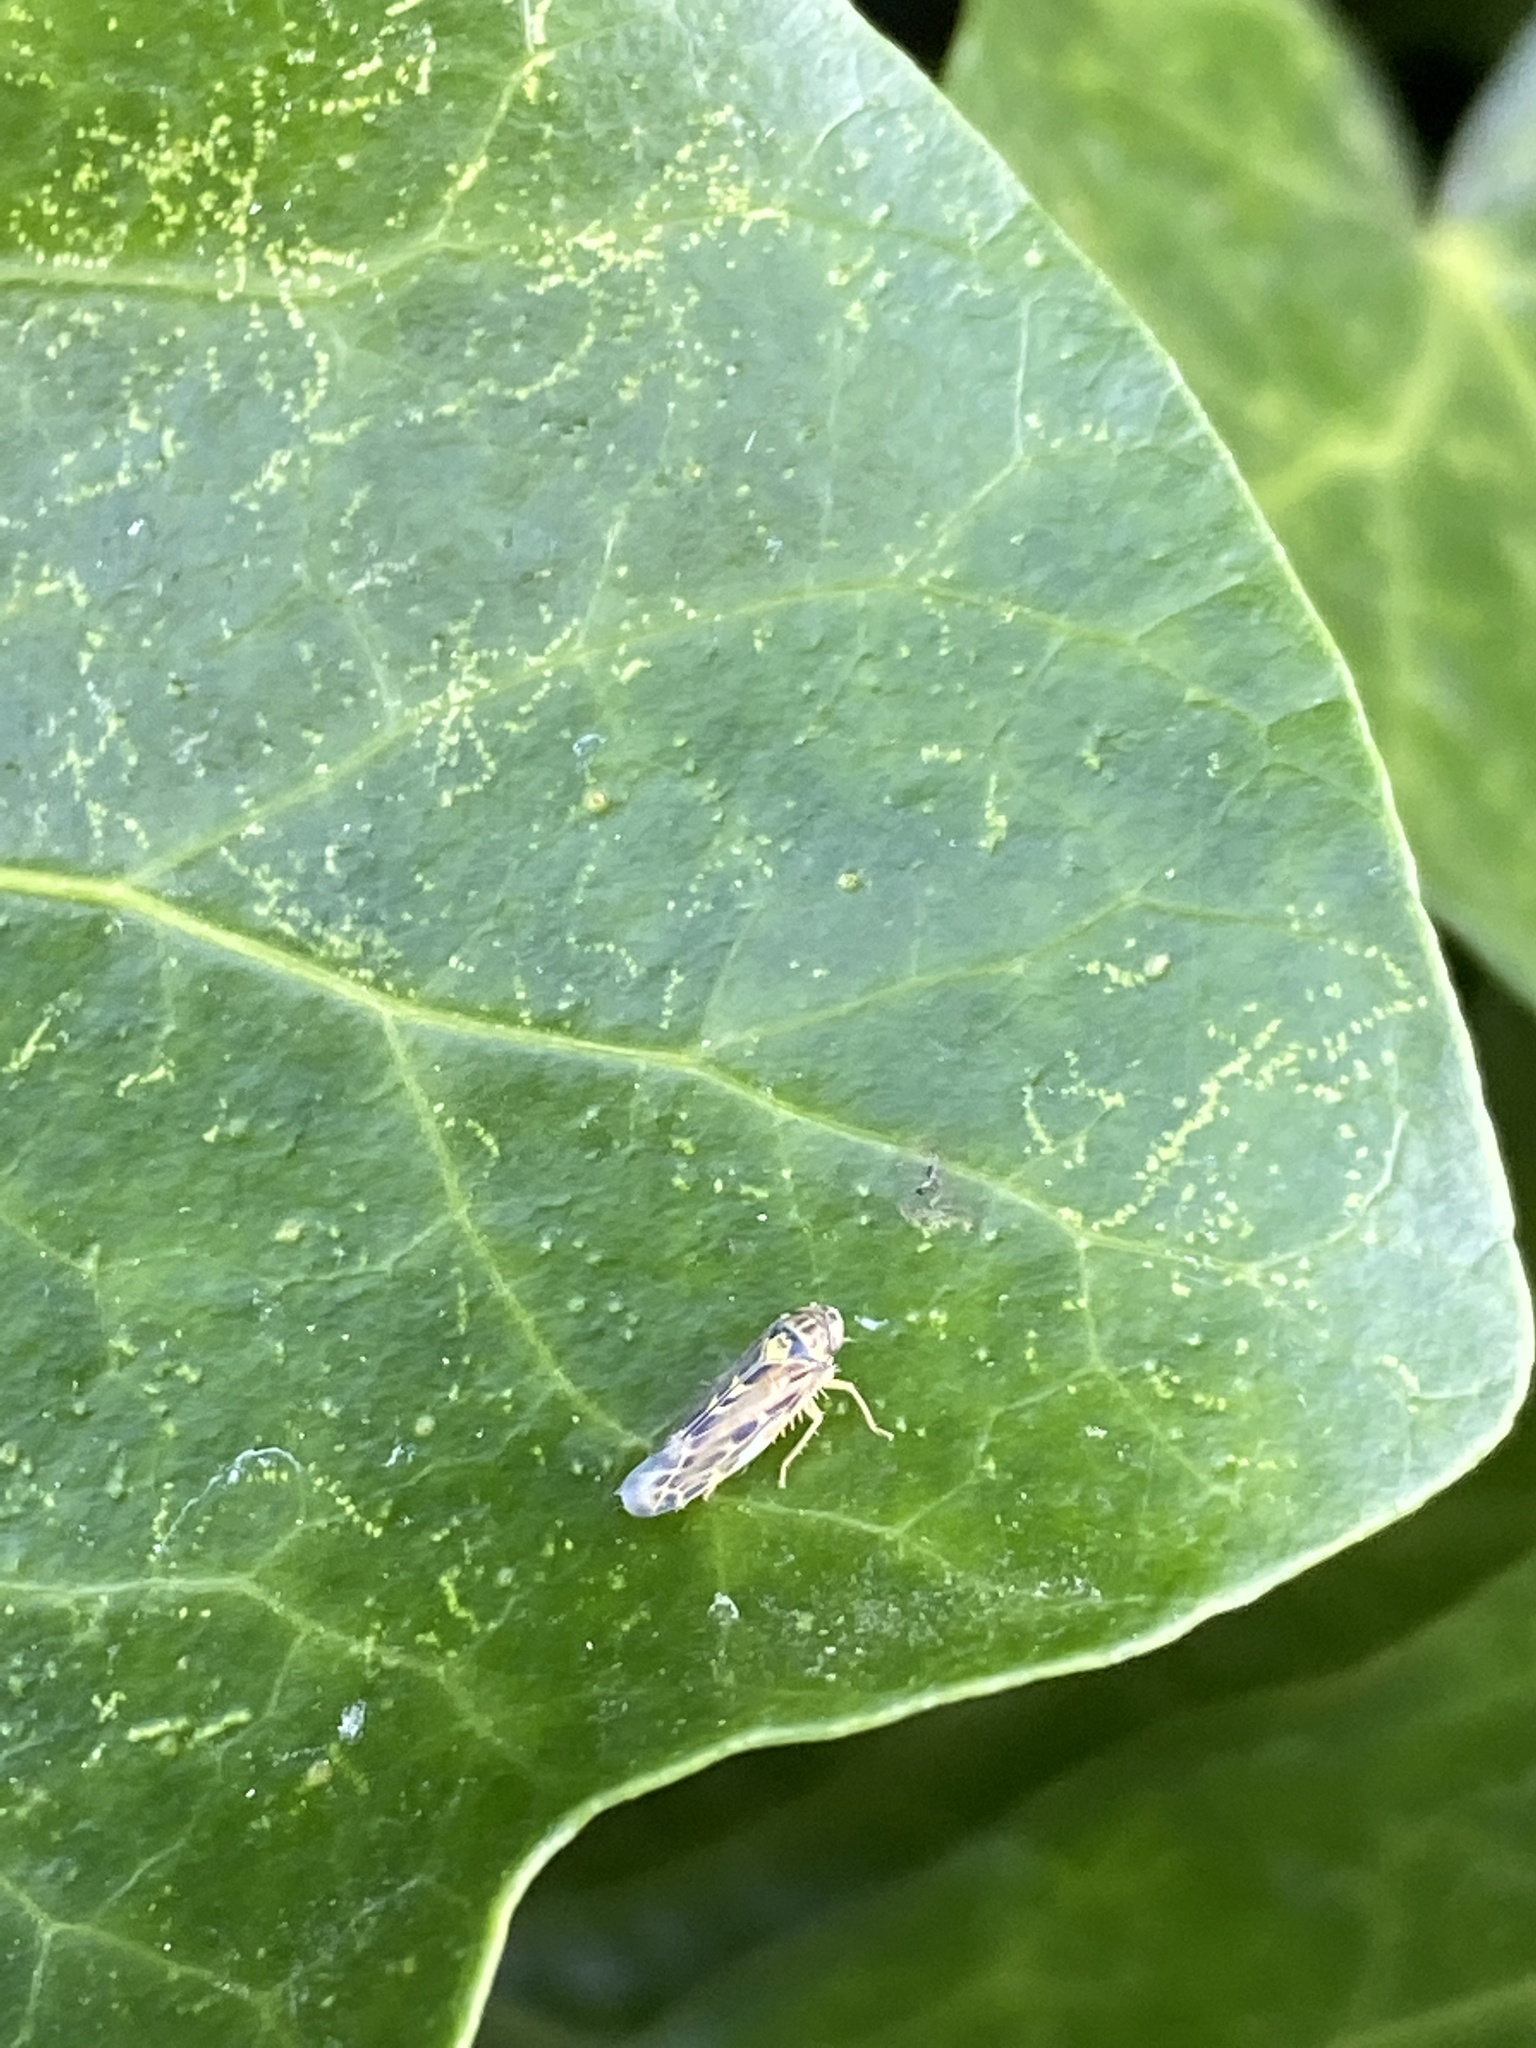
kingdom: Animalia
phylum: Arthropoda
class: Insecta
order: Hemiptera
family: Cicadellidae
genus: Lamprotettix
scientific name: Lamprotettix nitidulus
